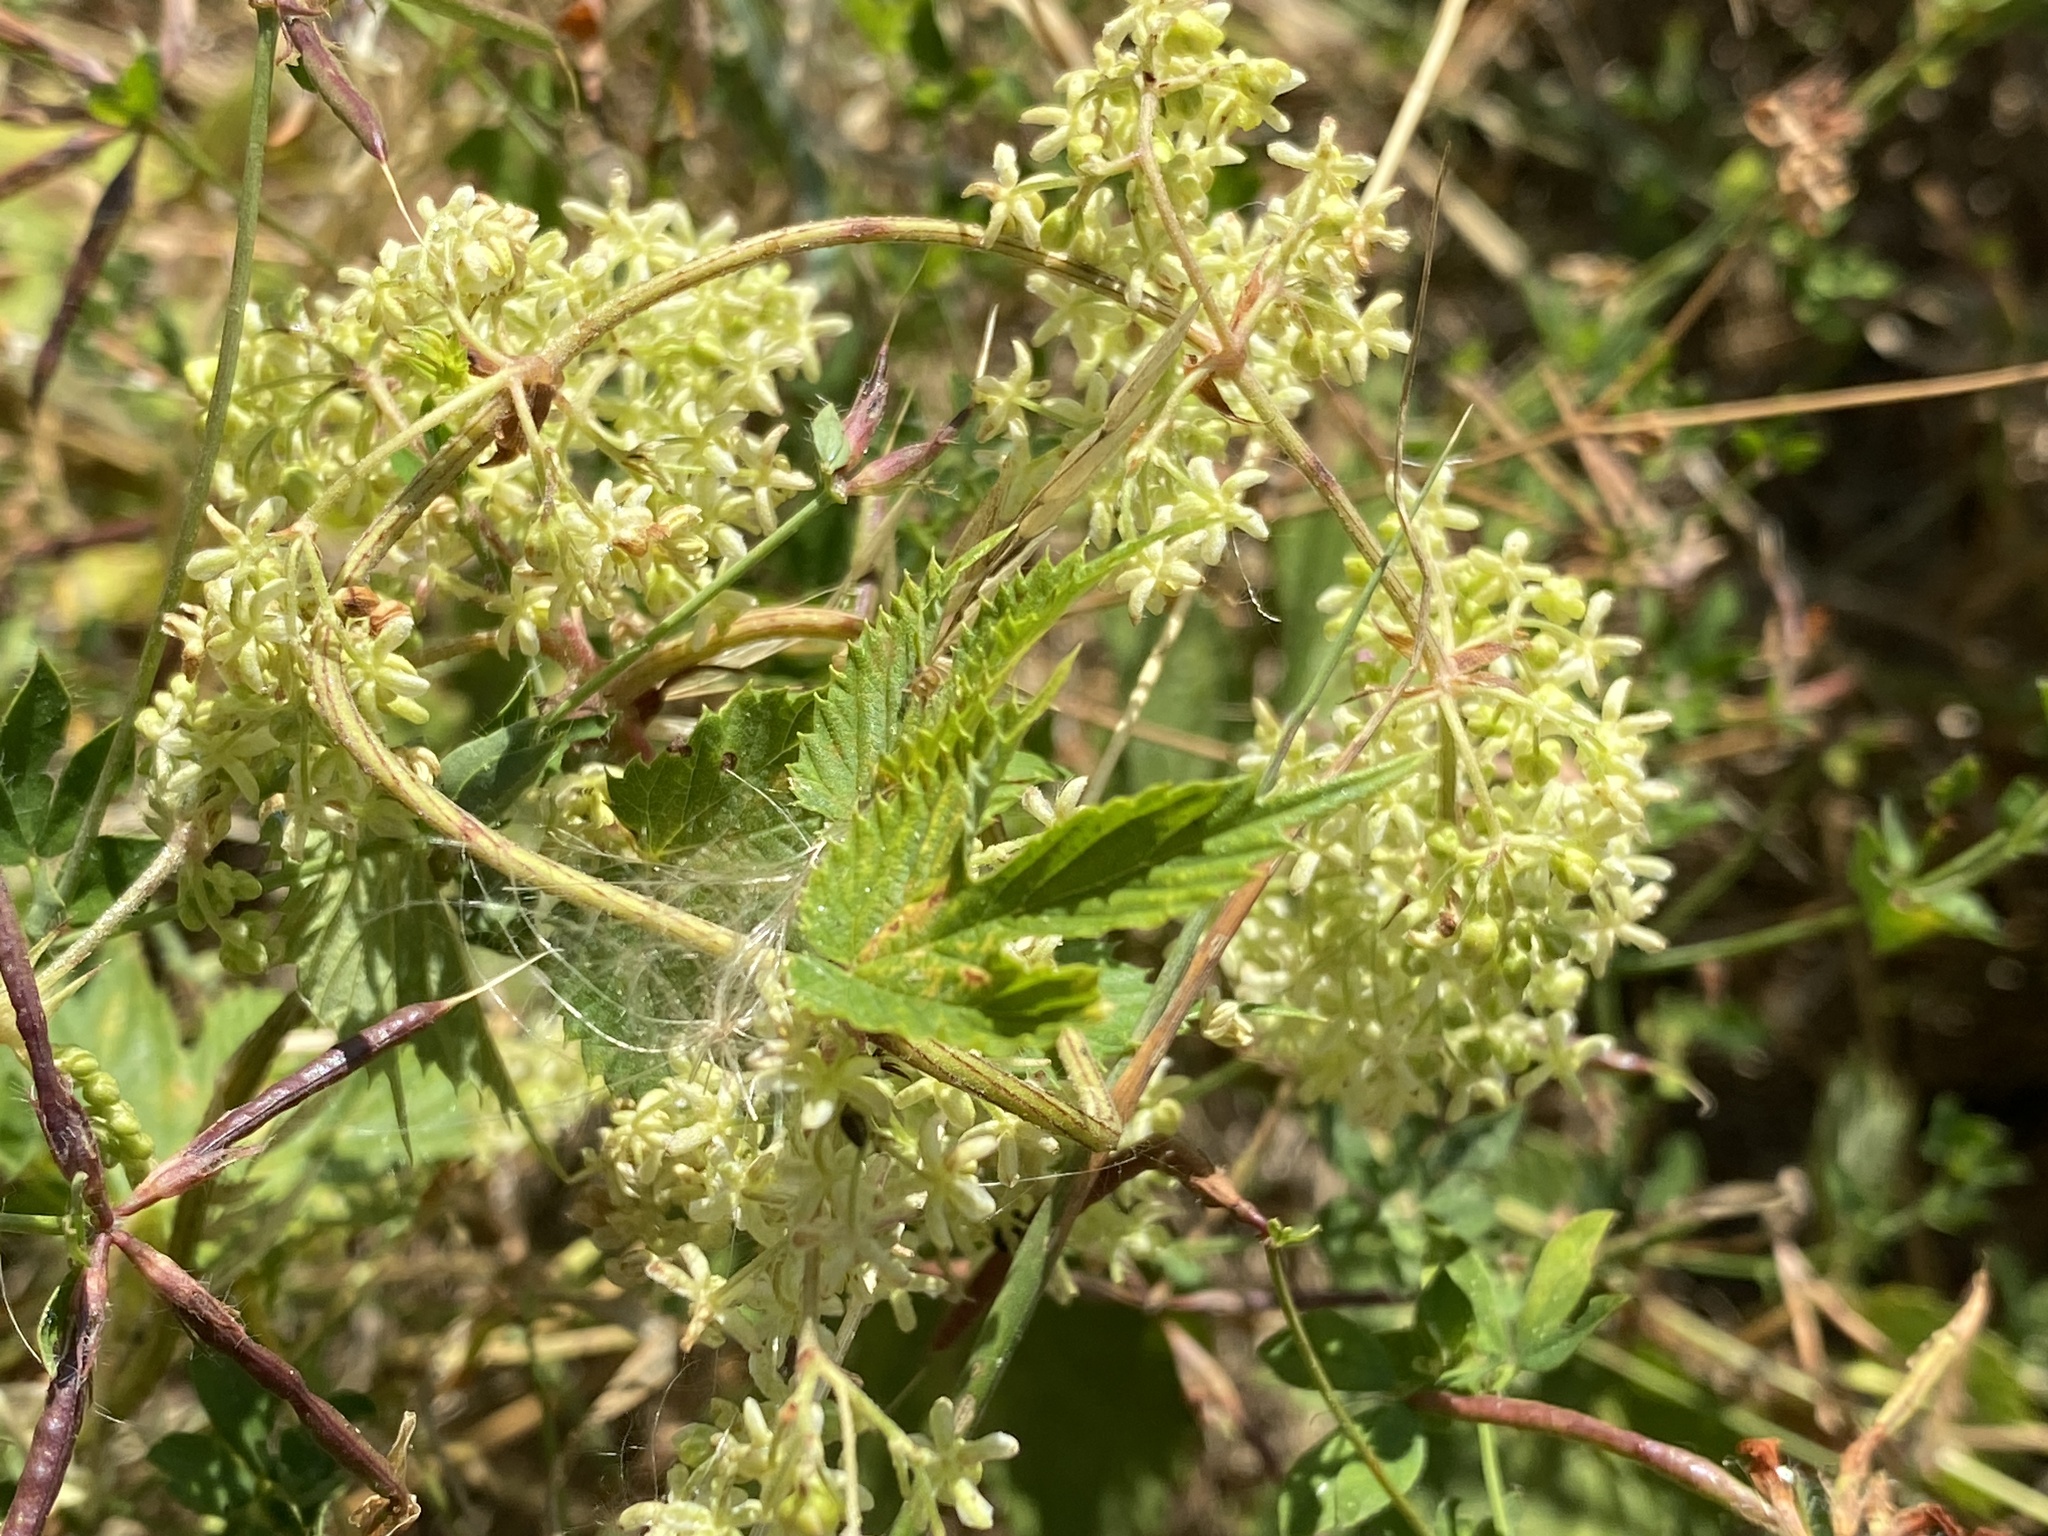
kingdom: Plantae
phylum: Tracheophyta
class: Magnoliopsida
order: Rosales
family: Cannabaceae
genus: Humulus
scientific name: Humulus lupulus
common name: Hop
